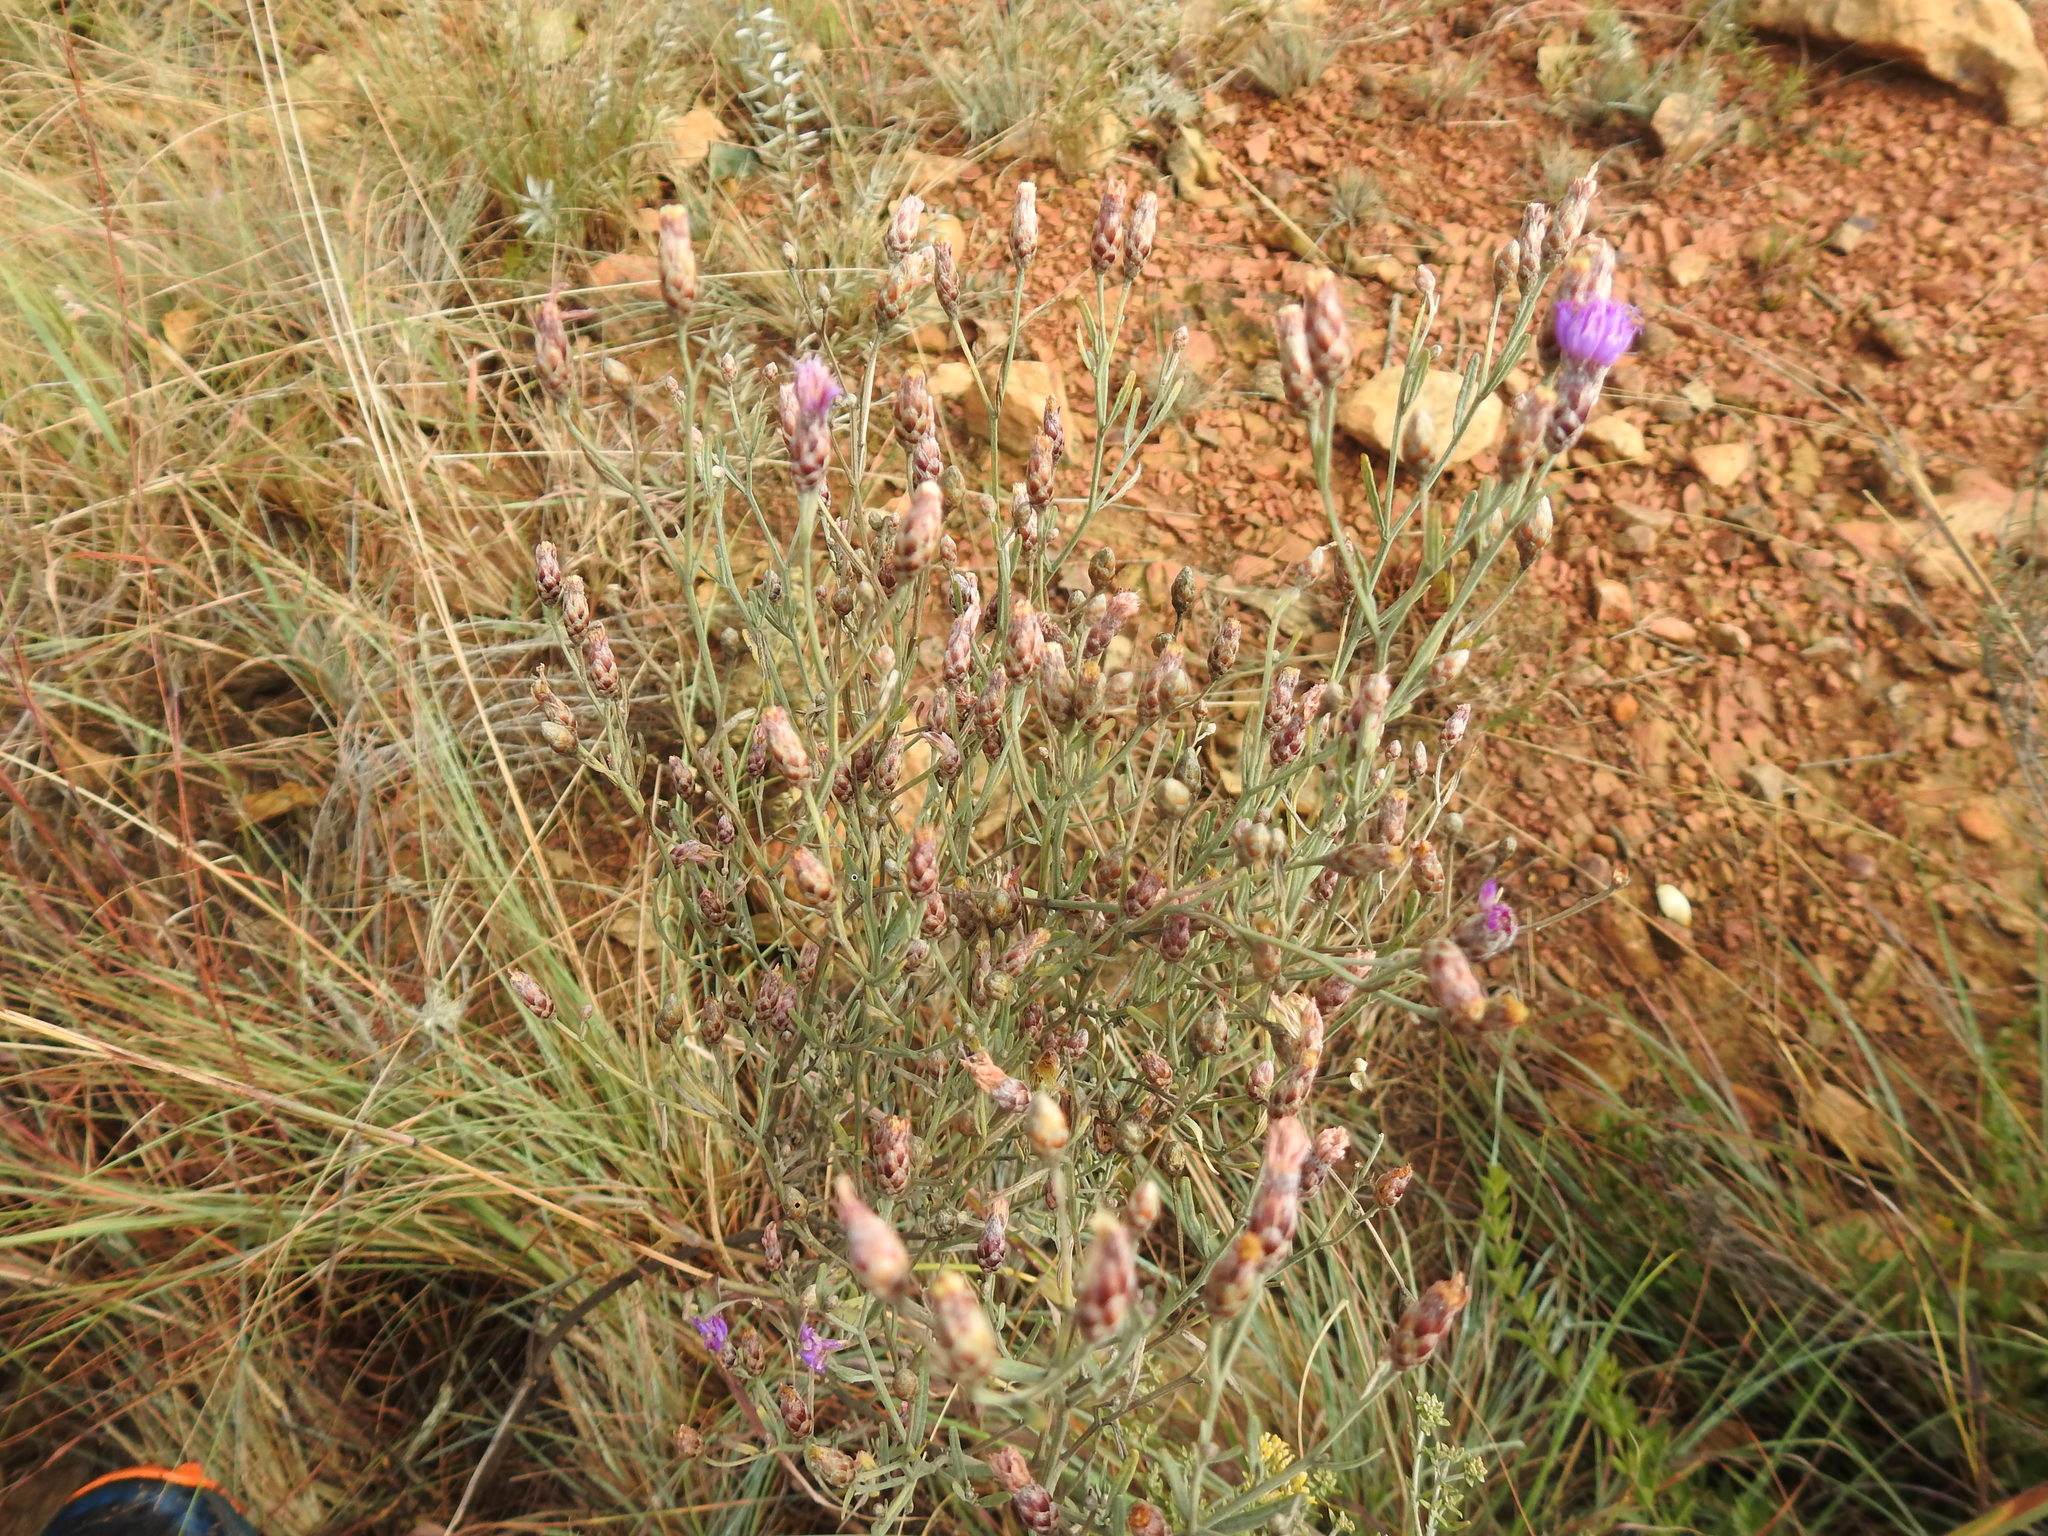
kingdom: Plantae
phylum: Tracheophyta
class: Magnoliopsida
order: Asterales
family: Asteraceae
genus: Oocephala
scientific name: Oocephala staehelinoides
